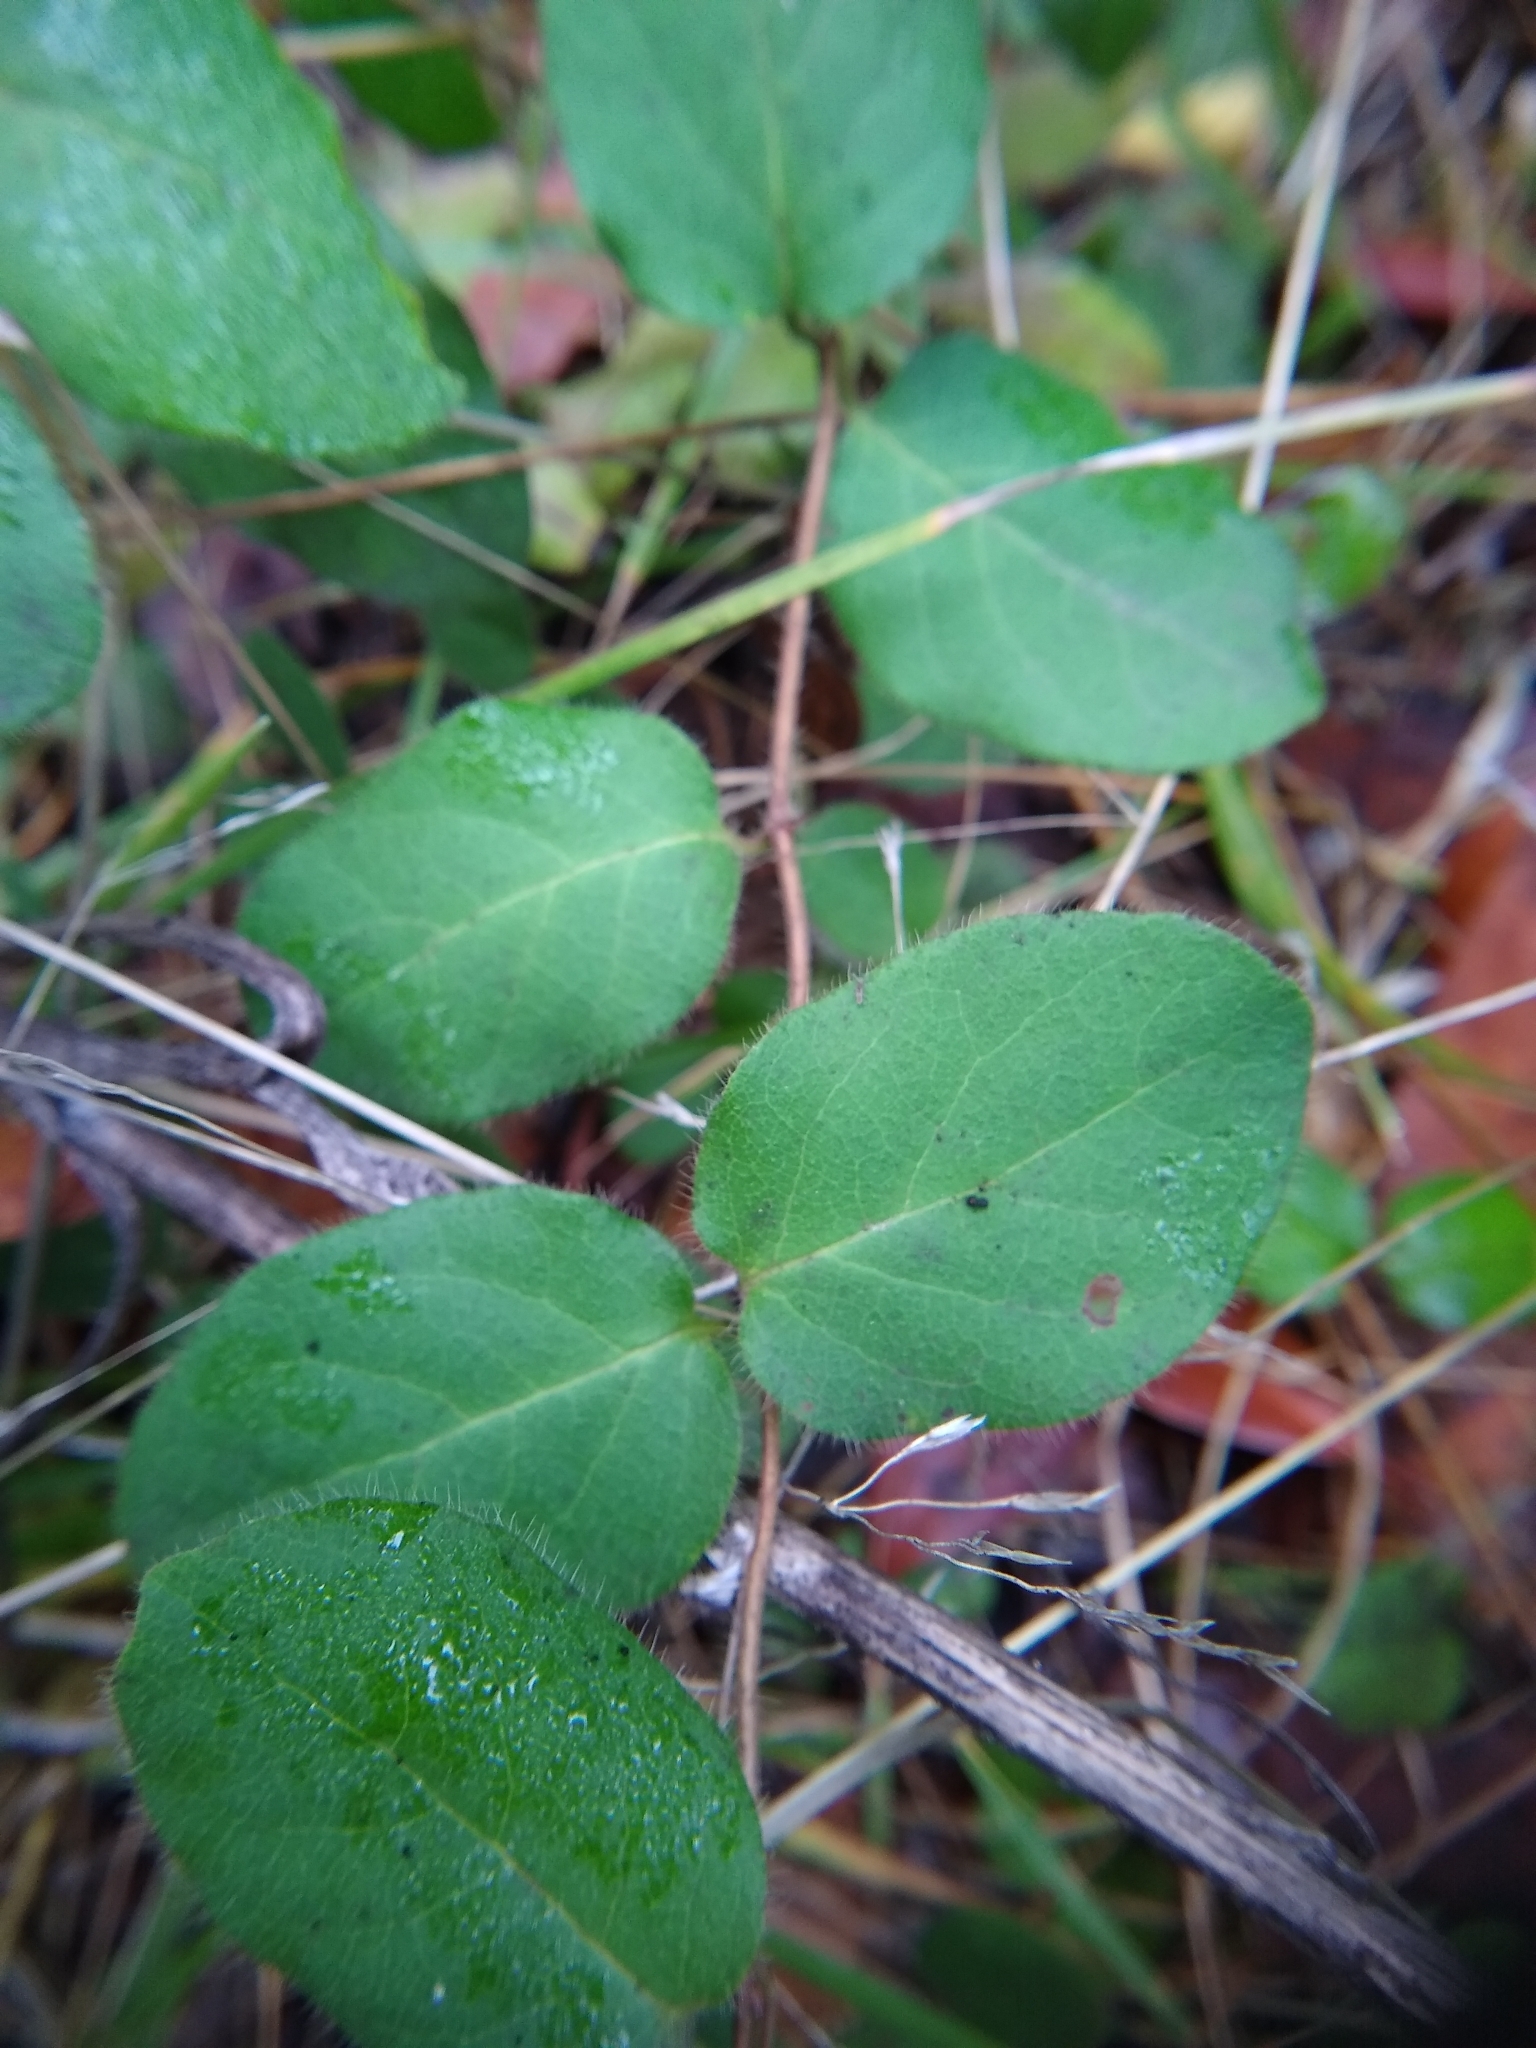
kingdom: Plantae
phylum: Tracheophyta
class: Magnoliopsida
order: Dipsacales
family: Caprifoliaceae
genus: Lonicera
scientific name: Lonicera hispidula
